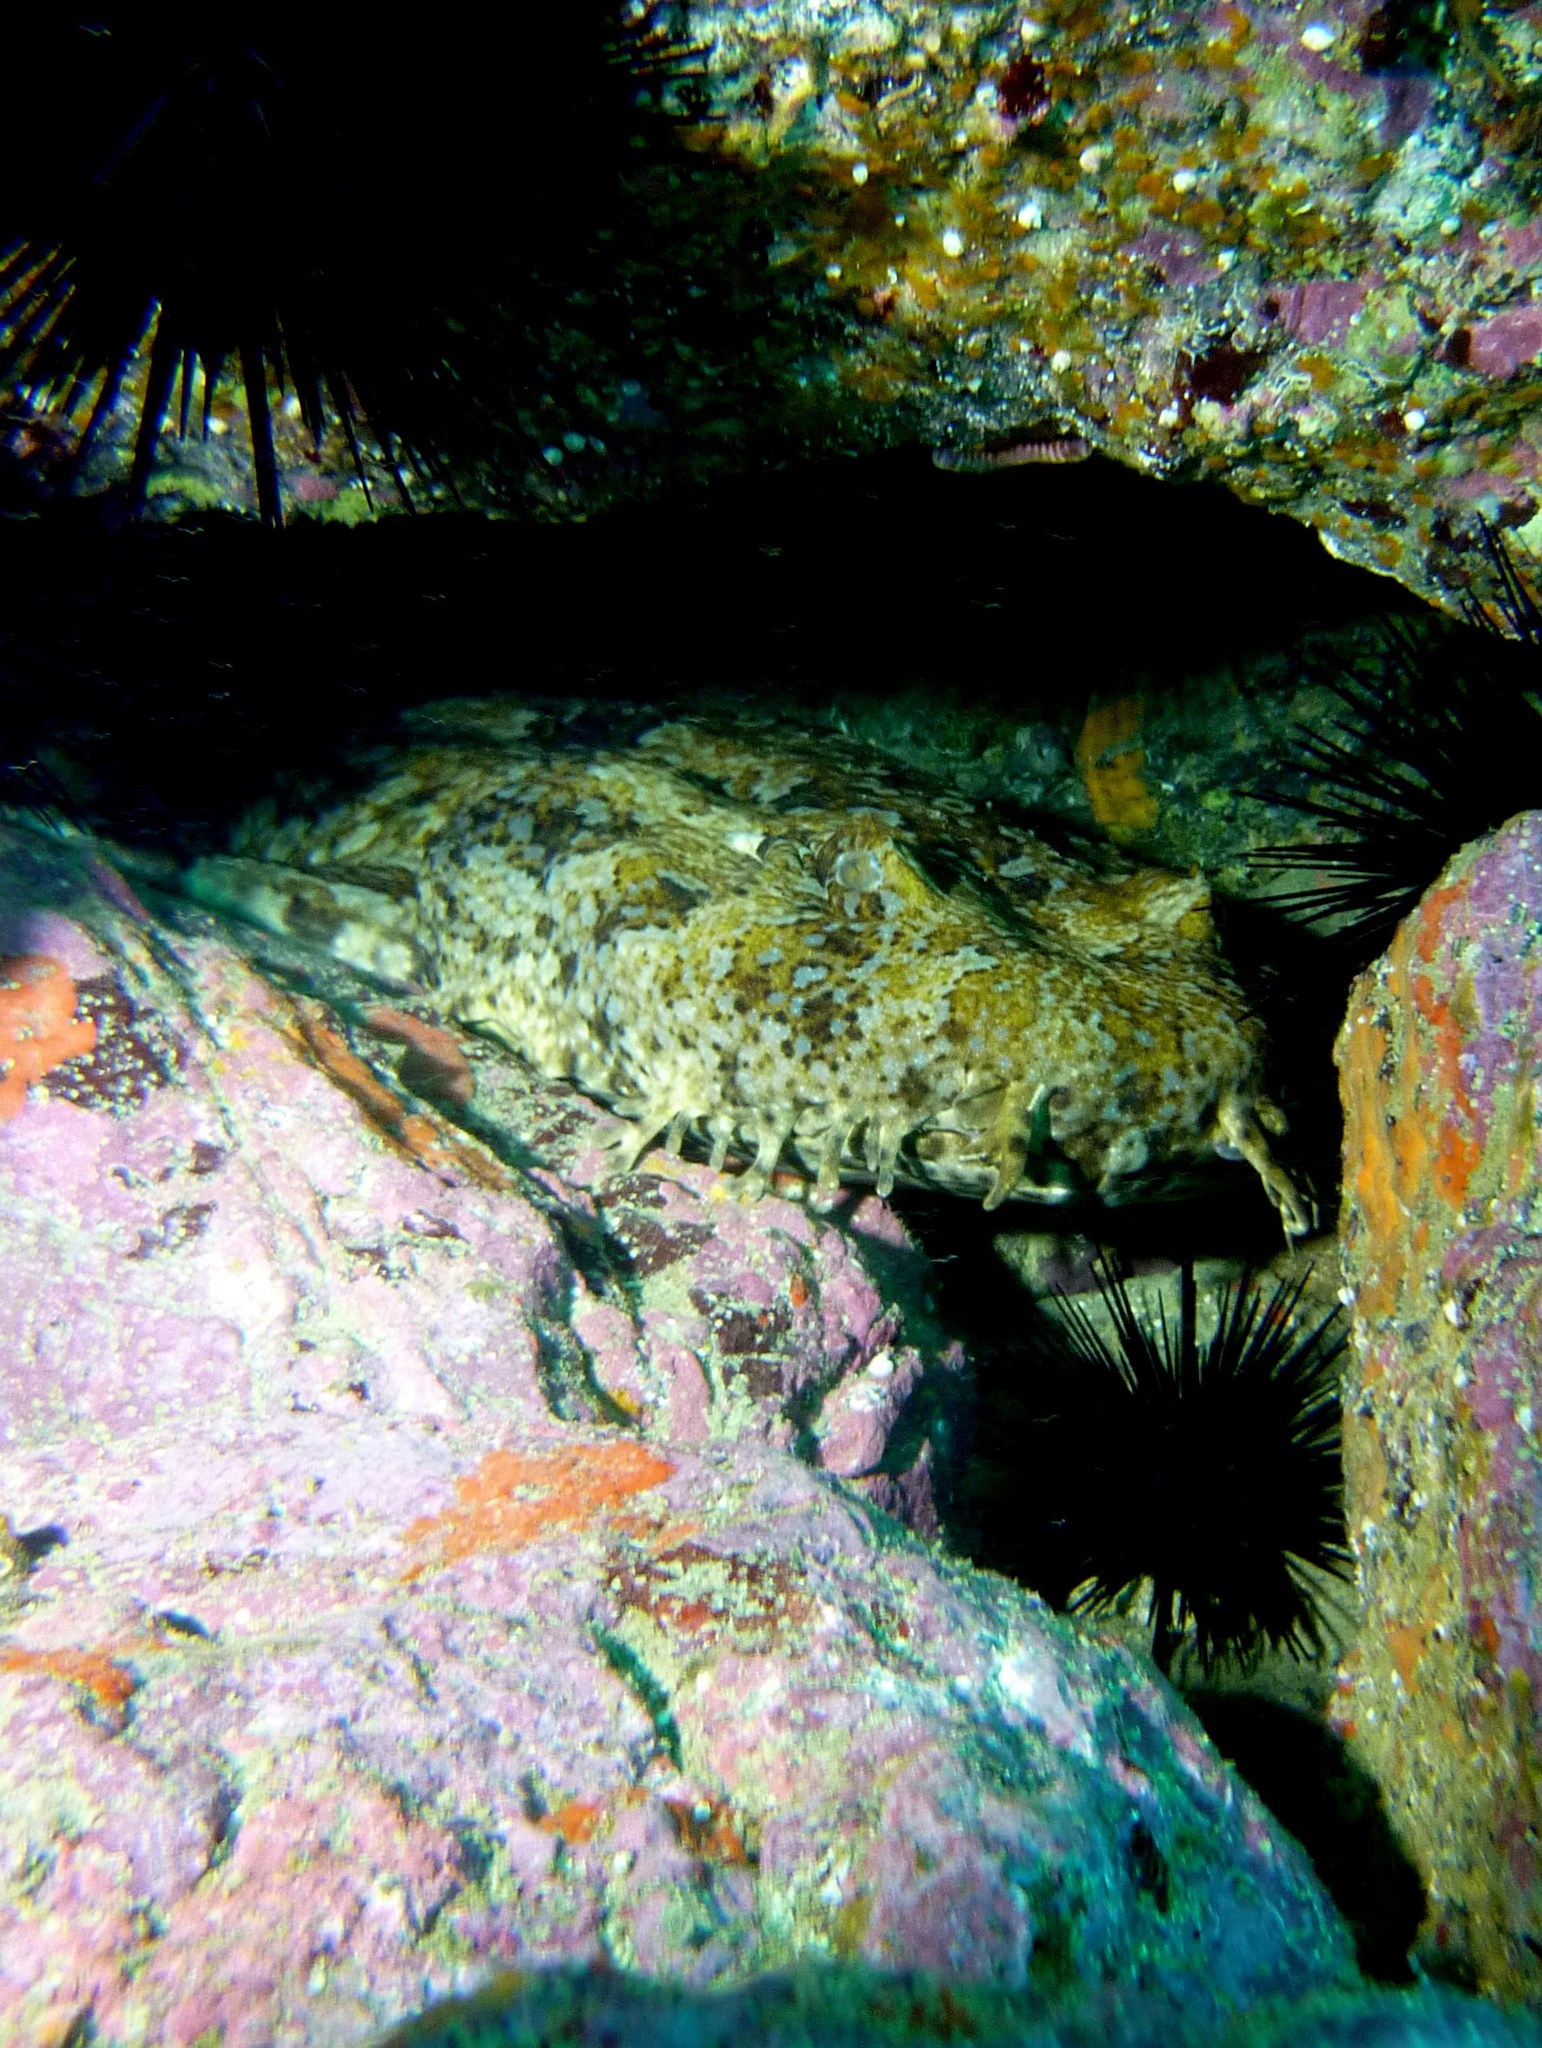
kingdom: Animalia
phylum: Chordata
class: Elasmobranchii
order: Orectolobiformes
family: Orectolobidae
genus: Orectolobus
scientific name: Orectolobus halei
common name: Banded wobbegong
